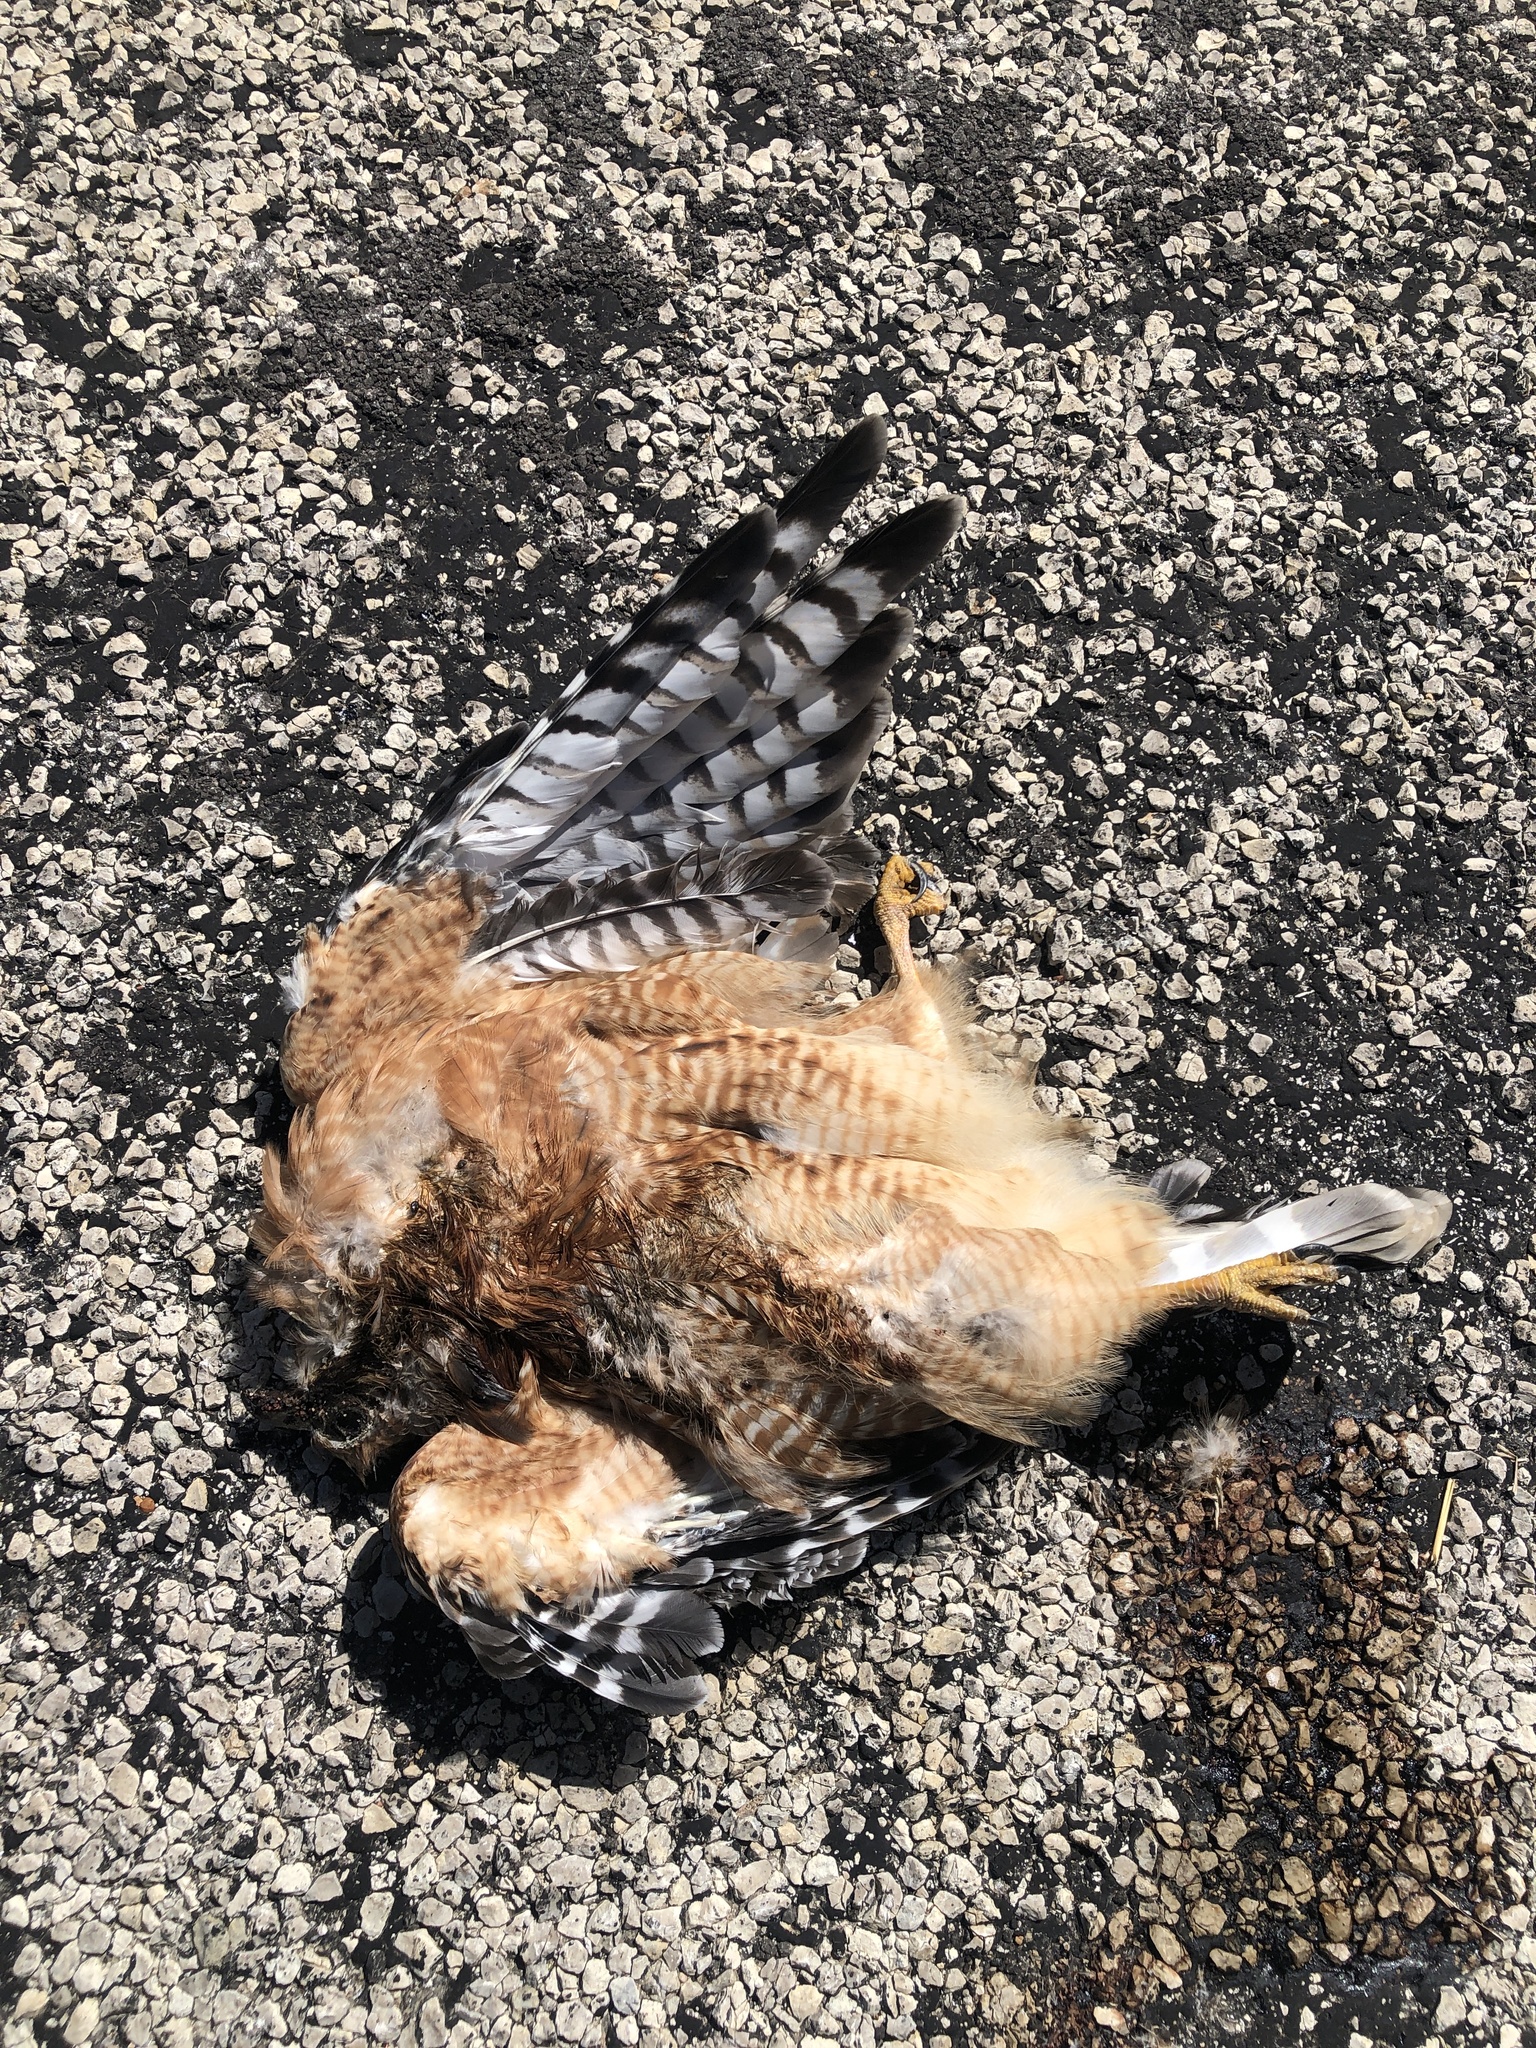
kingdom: Animalia
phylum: Chordata
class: Aves
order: Accipitriformes
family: Accipitridae
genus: Buteo
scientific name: Buteo lineatus
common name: Red-shouldered hawk
